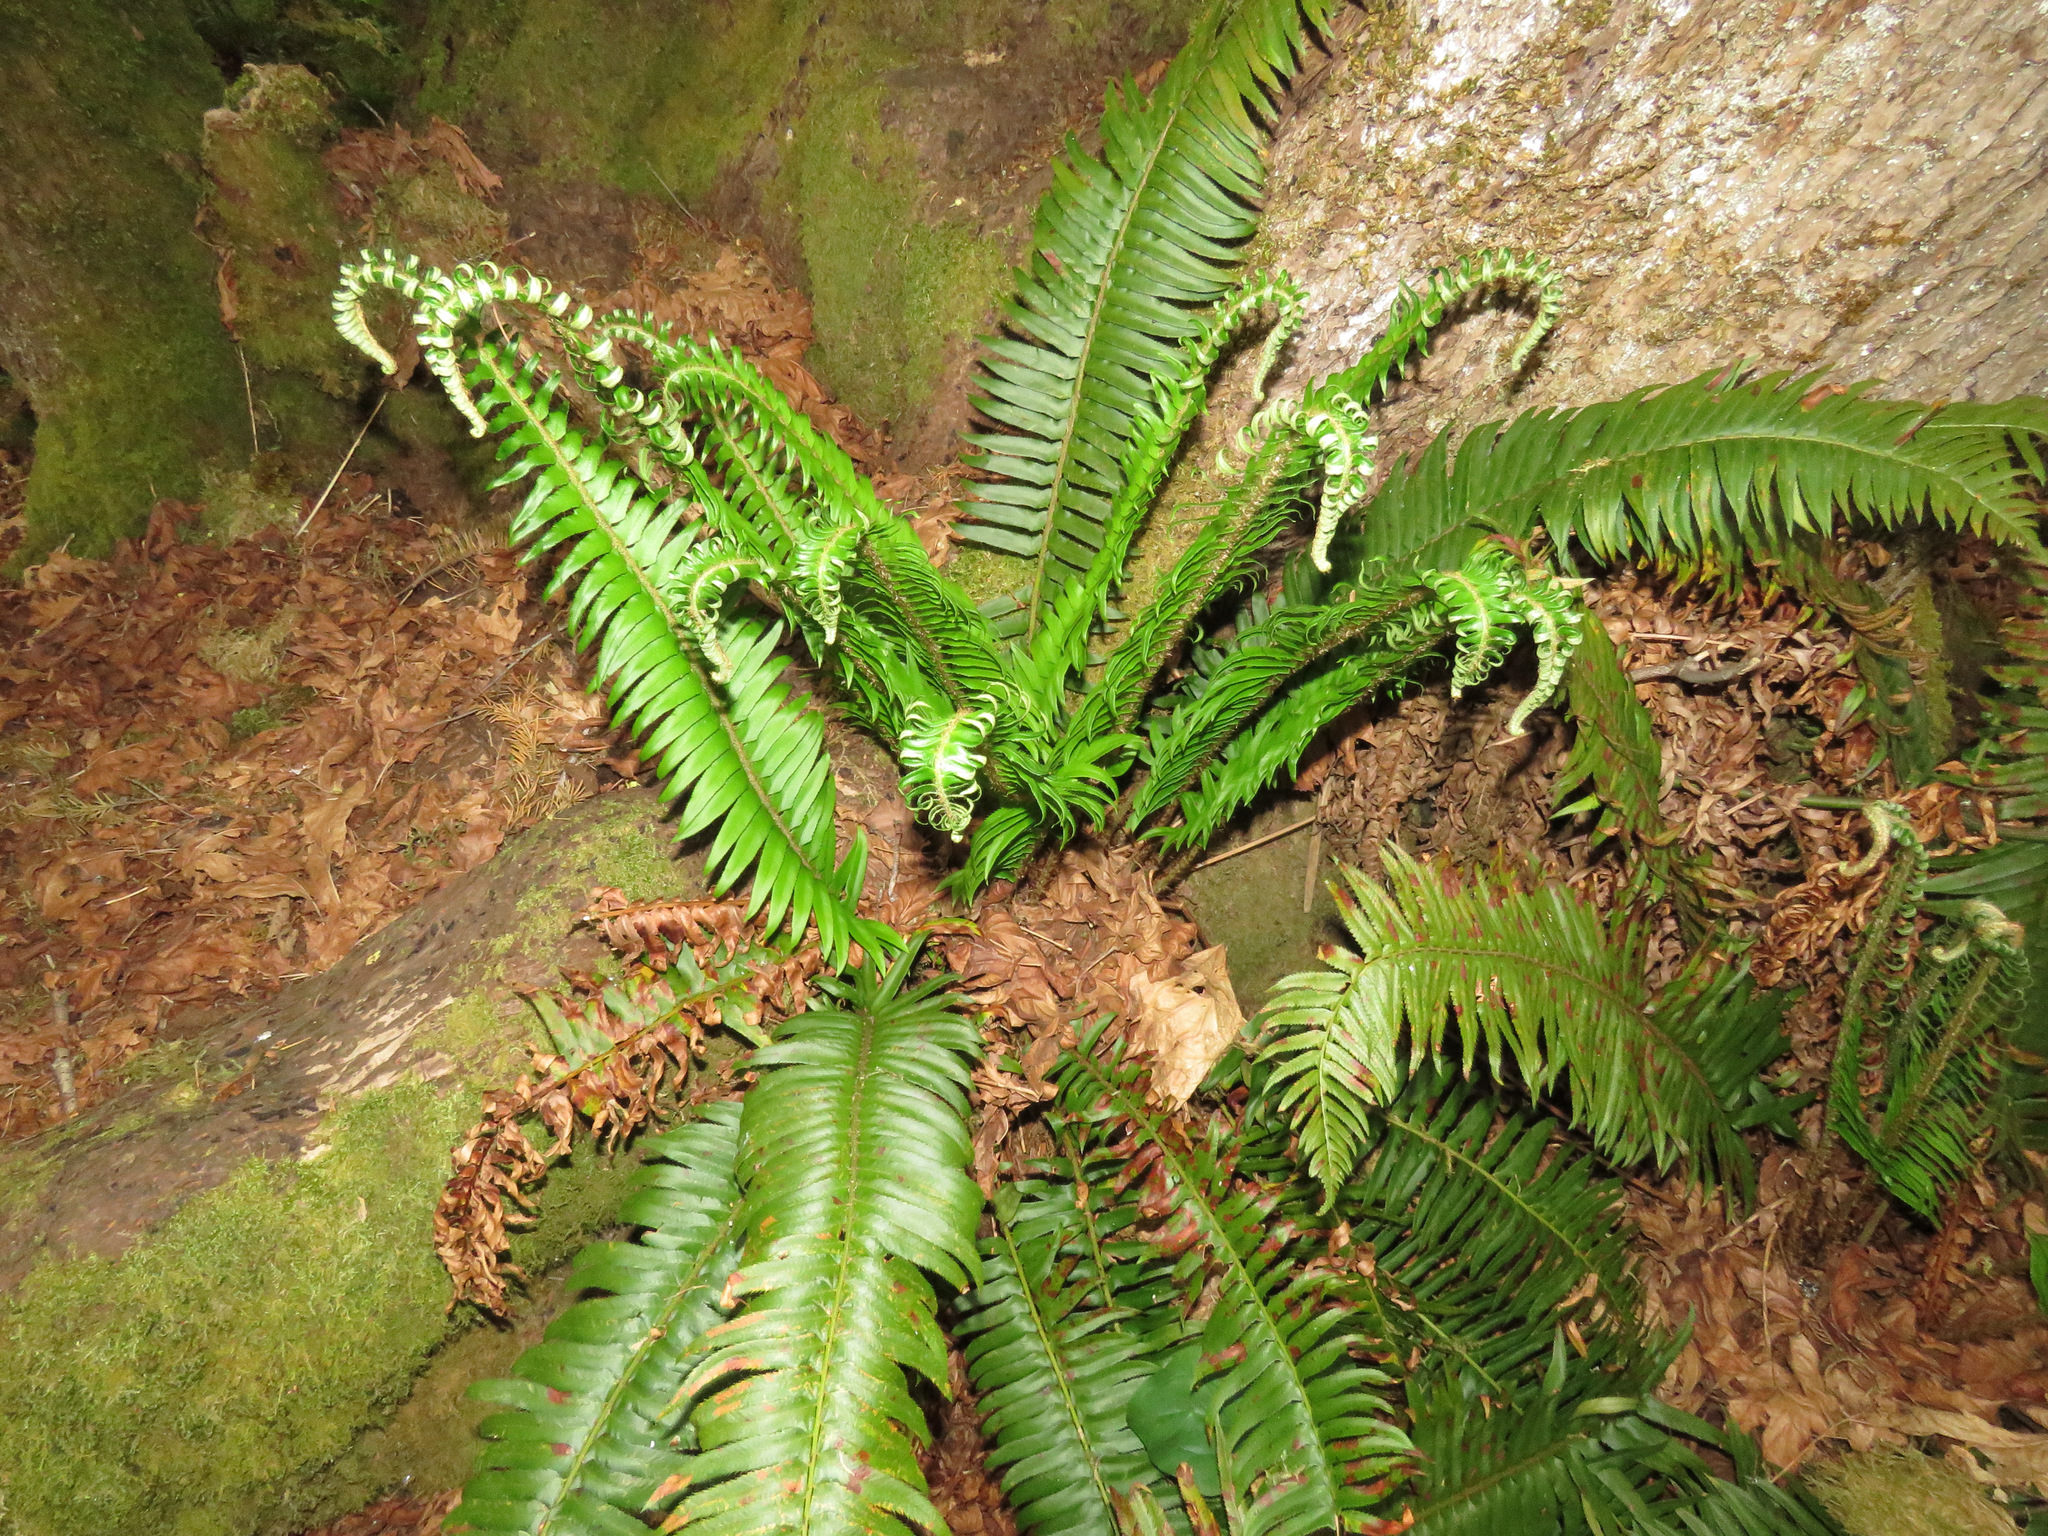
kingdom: Plantae
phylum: Tracheophyta
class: Polypodiopsida
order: Polypodiales
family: Dryopteridaceae
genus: Polystichum
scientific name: Polystichum munitum
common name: Western sword-fern
